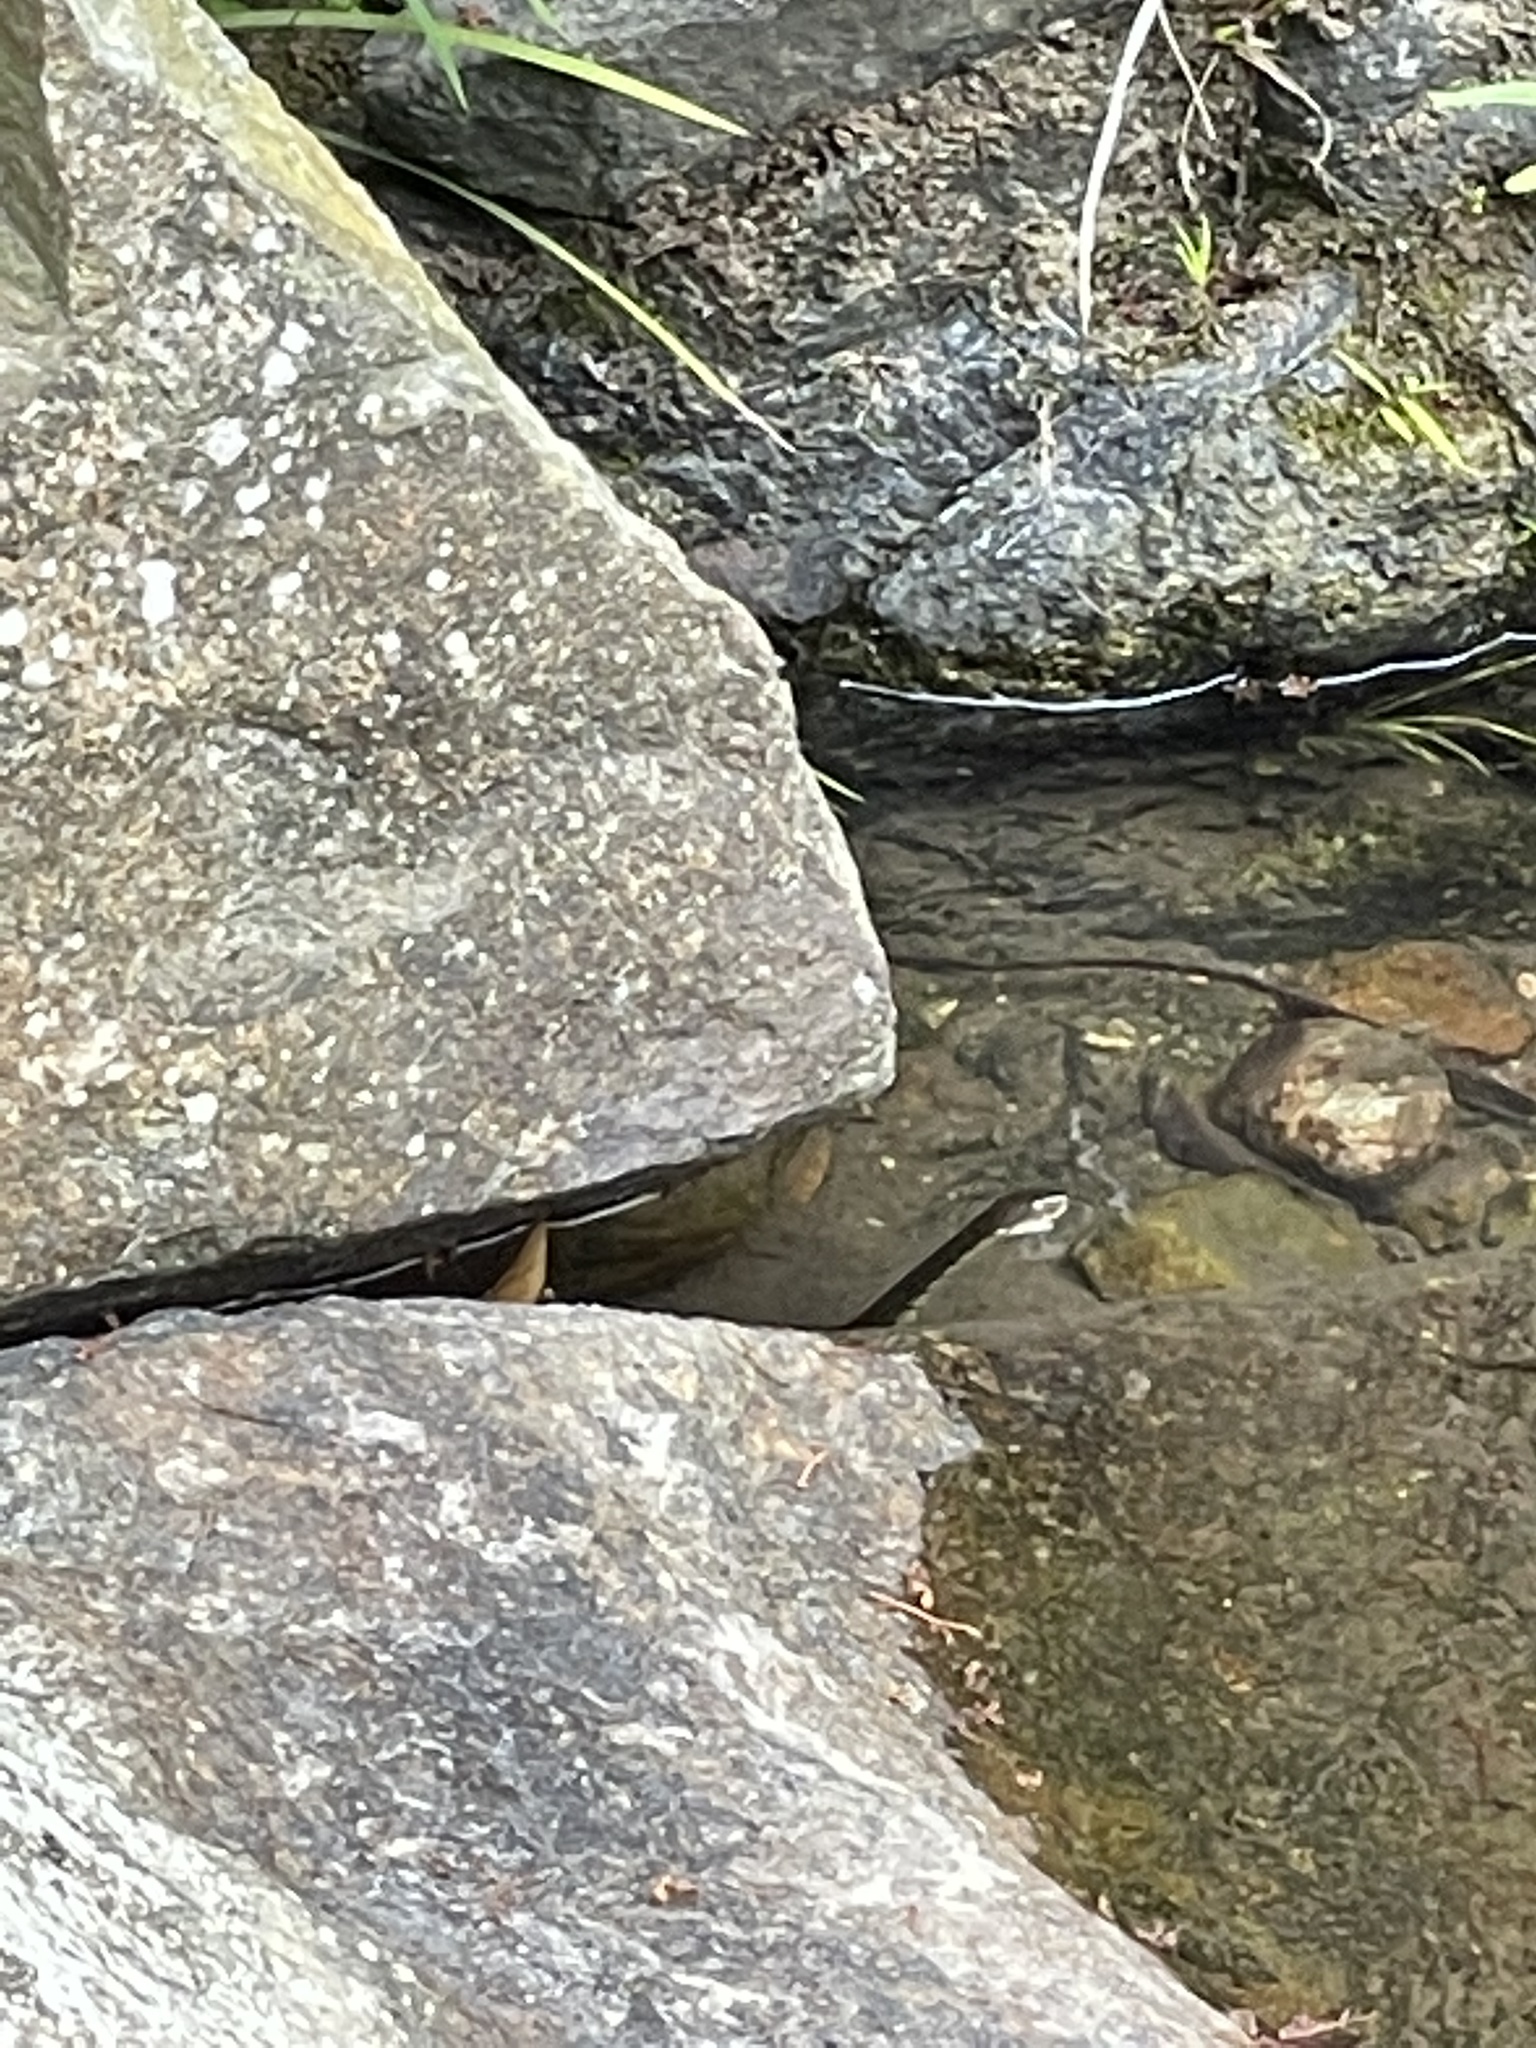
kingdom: Animalia
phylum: Chordata
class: Squamata
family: Colubridae
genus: Trimerodytes
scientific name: Trimerodytes percarinatus
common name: Eastern water snake
